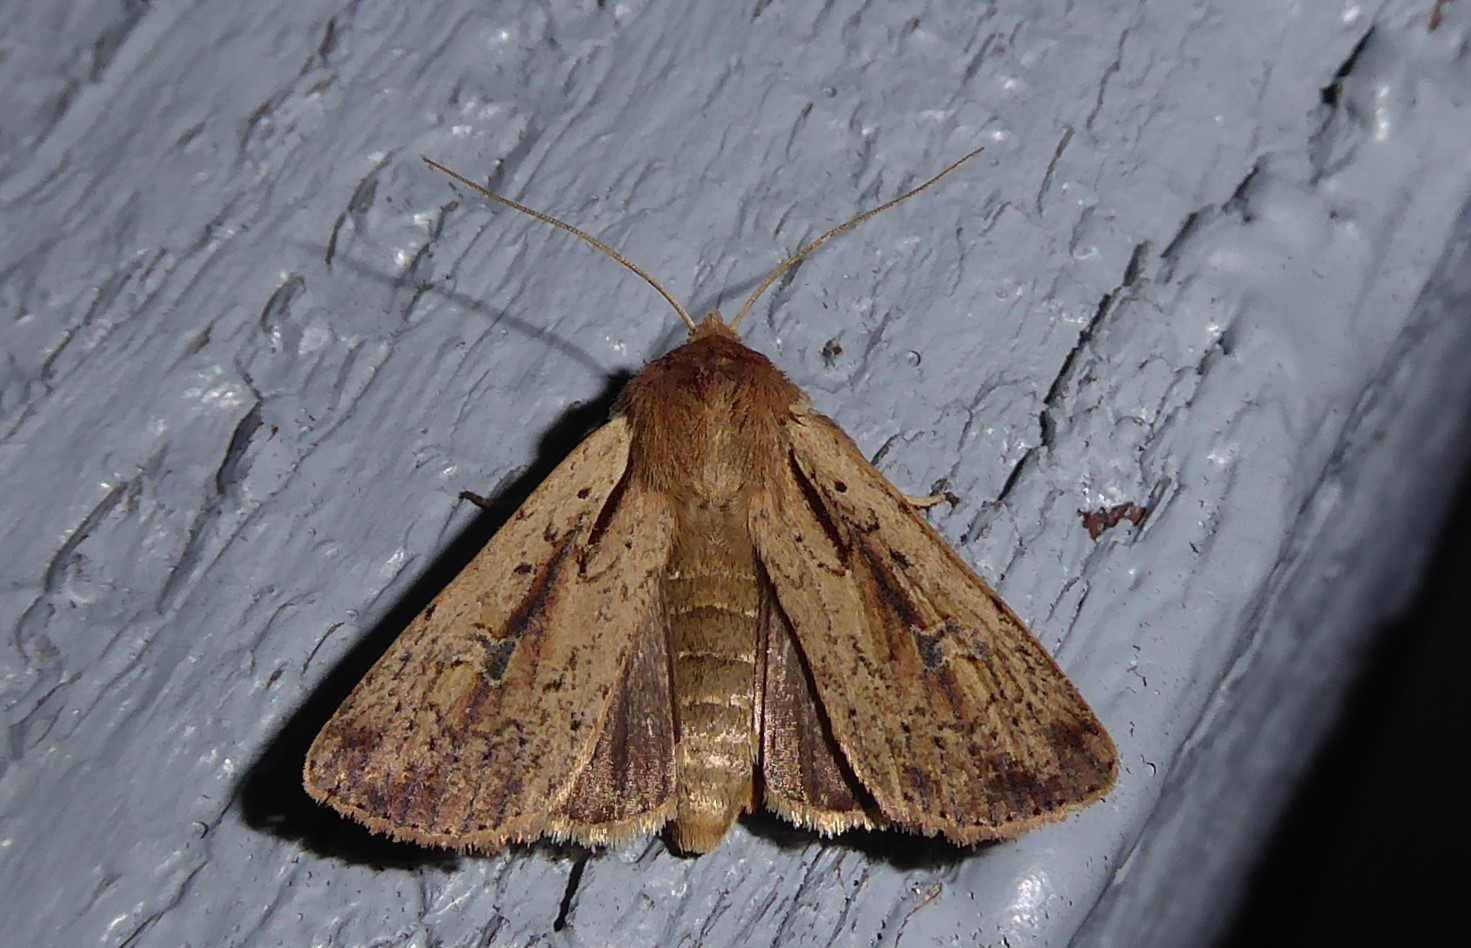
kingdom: Animalia
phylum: Arthropoda
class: Insecta
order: Lepidoptera
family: Noctuidae
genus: Ichneutica
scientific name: Ichneutica atristriga
